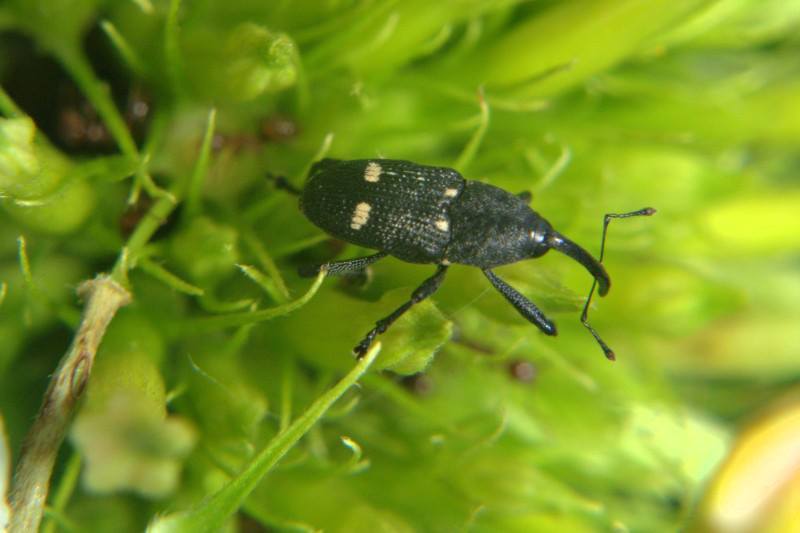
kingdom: Animalia
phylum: Arthropoda
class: Insecta
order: Coleoptera
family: Curculionidae
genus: Mimophilus
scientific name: Mimophilus tragicus
